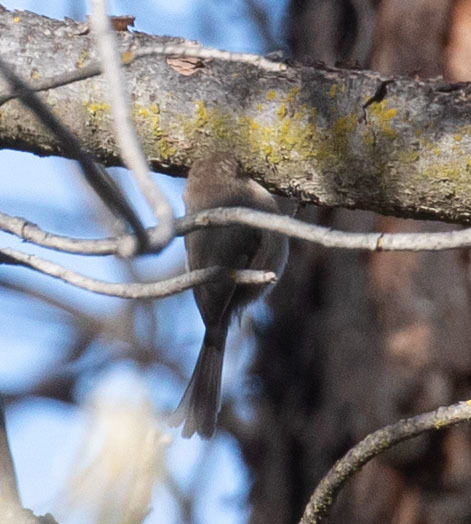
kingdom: Animalia
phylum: Chordata
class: Aves
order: Passeriformes
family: Aegithalidae
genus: Psaltriparus
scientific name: Psaltriparus minimus
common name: American bushtit
